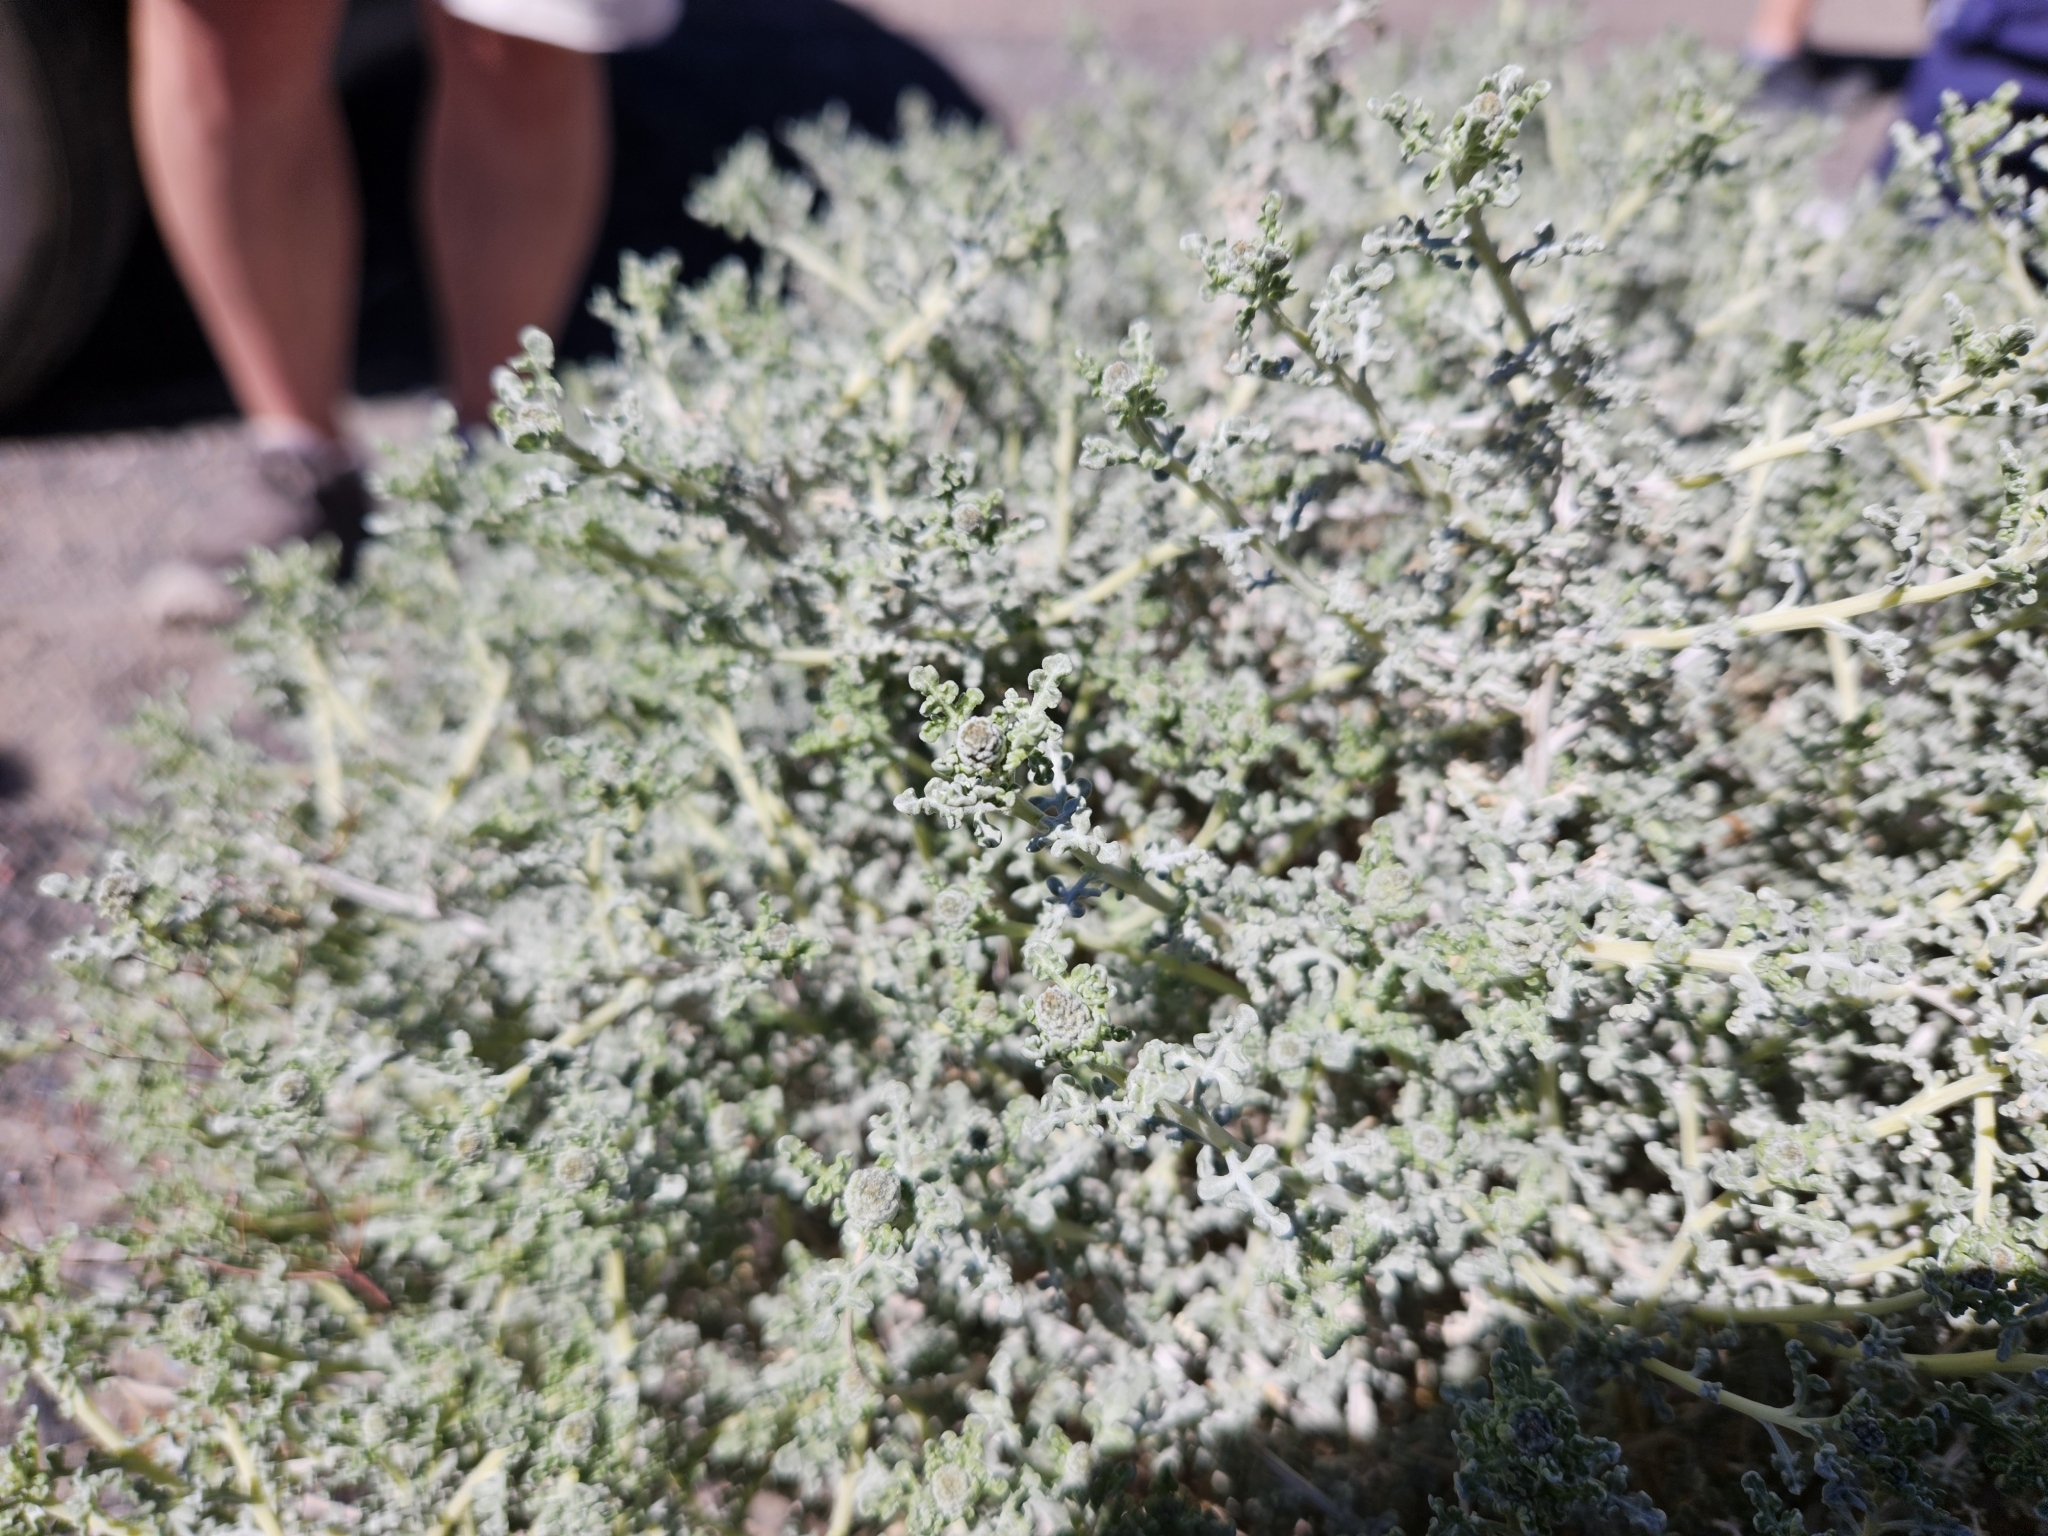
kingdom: Plantae
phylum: Tracheophyta
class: Magnoliopsida
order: Asterales
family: Asteraceae
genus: Ambrosia
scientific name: Ambrosia dumosa
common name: Bur-sage
